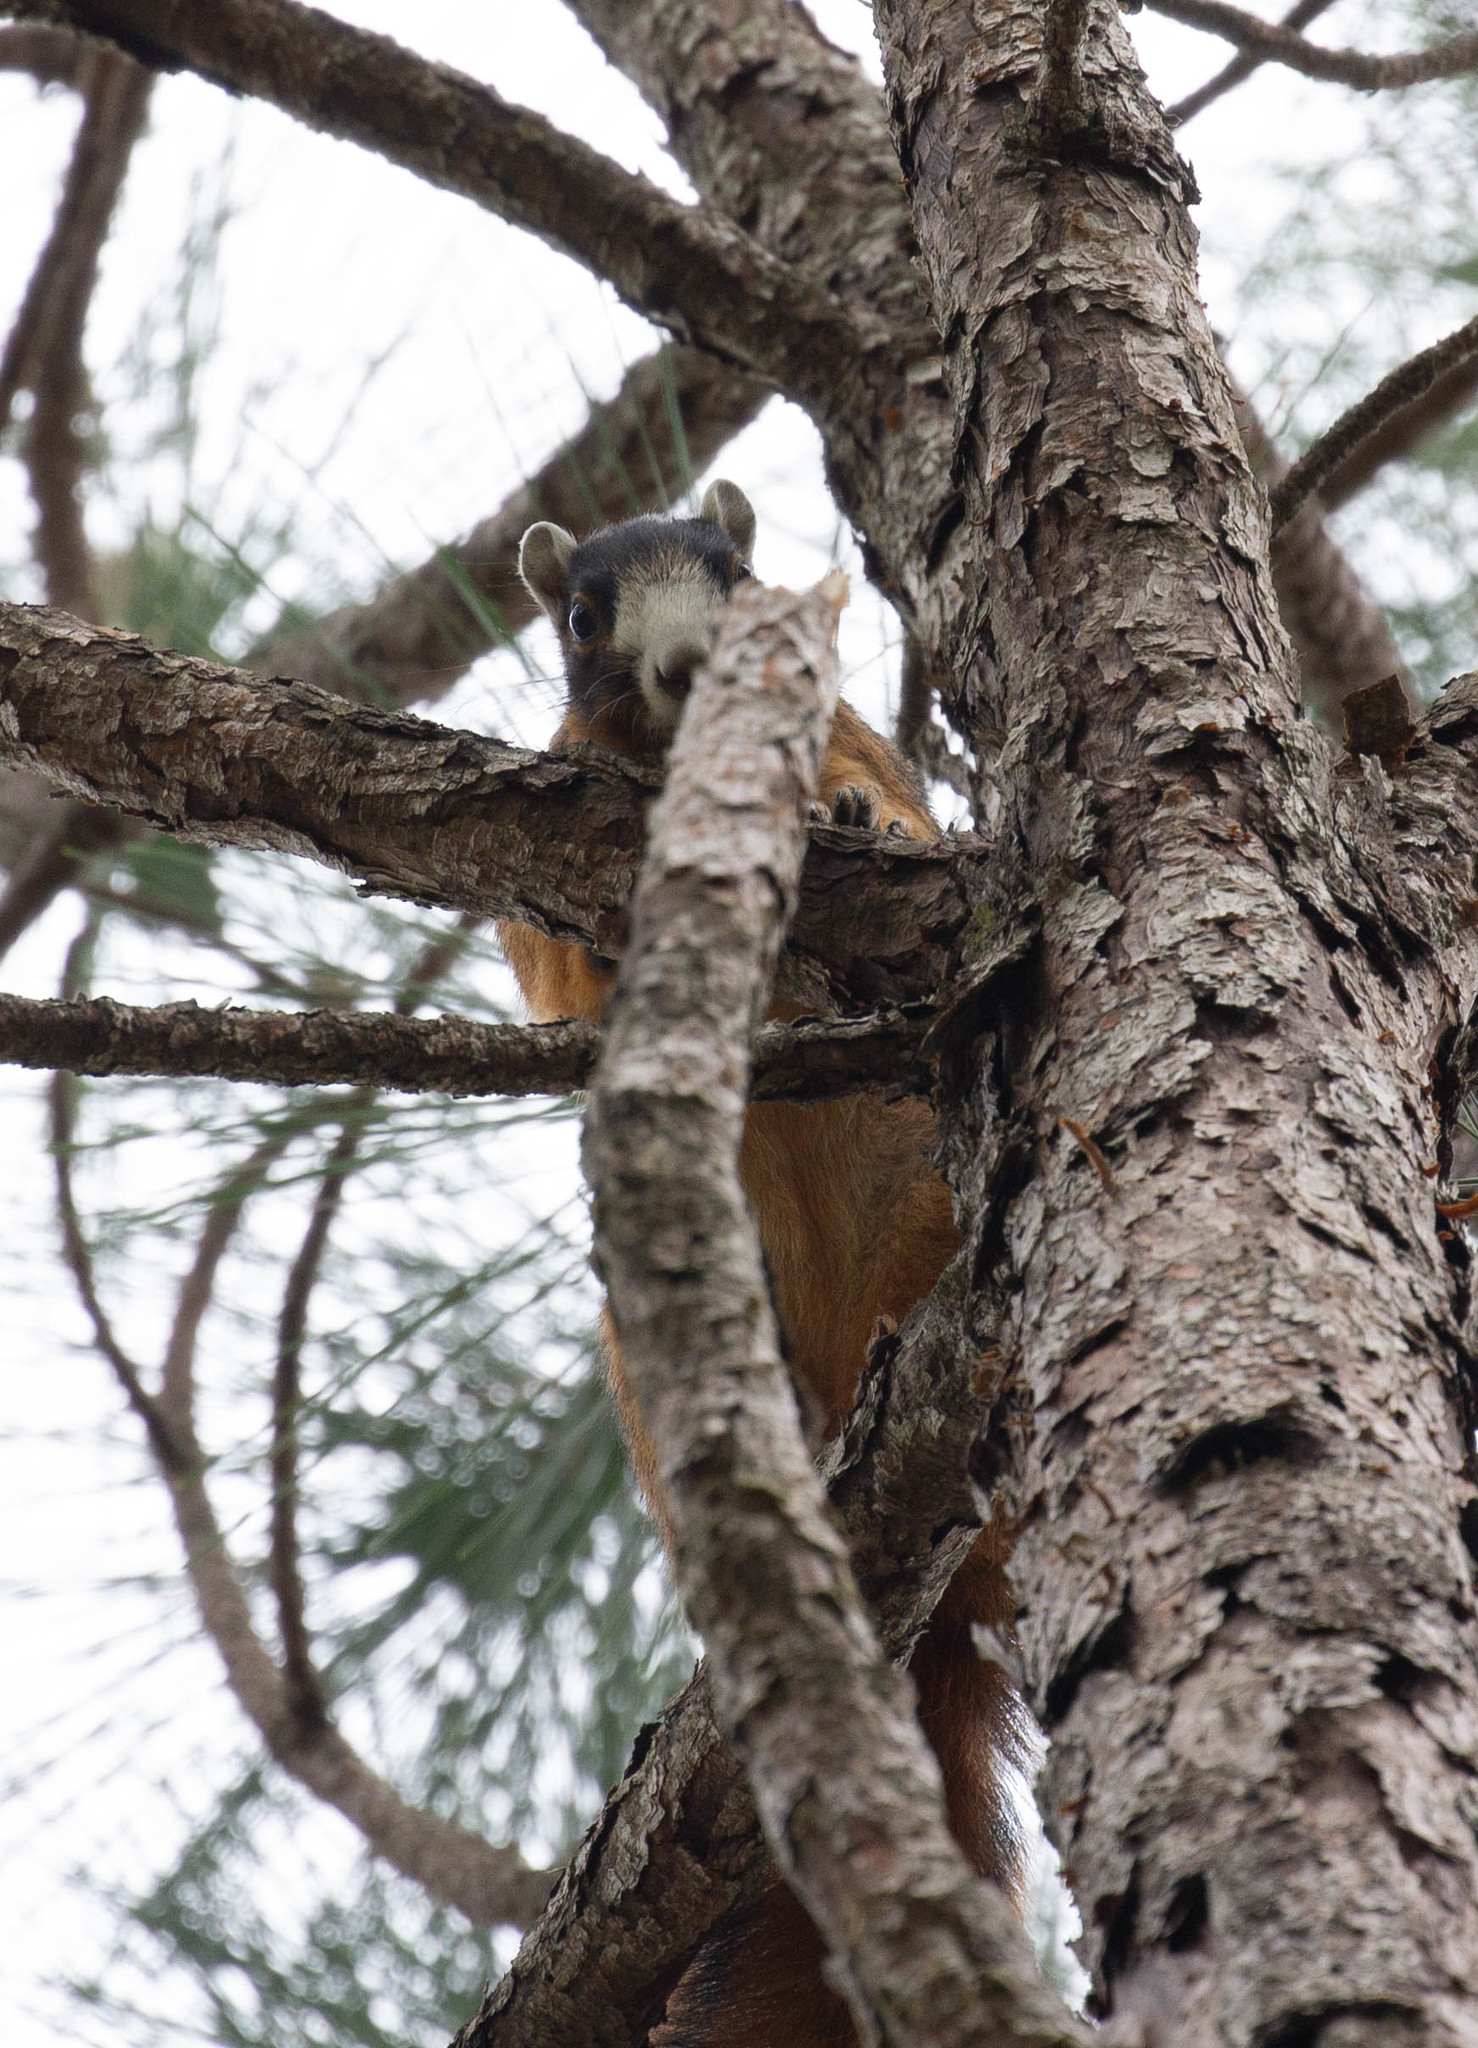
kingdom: Animalia
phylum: Chordata
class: Mammalia
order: Rodentia
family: Sciuridae
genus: Sciurus
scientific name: Sciurus niger
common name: Fox squirrel
